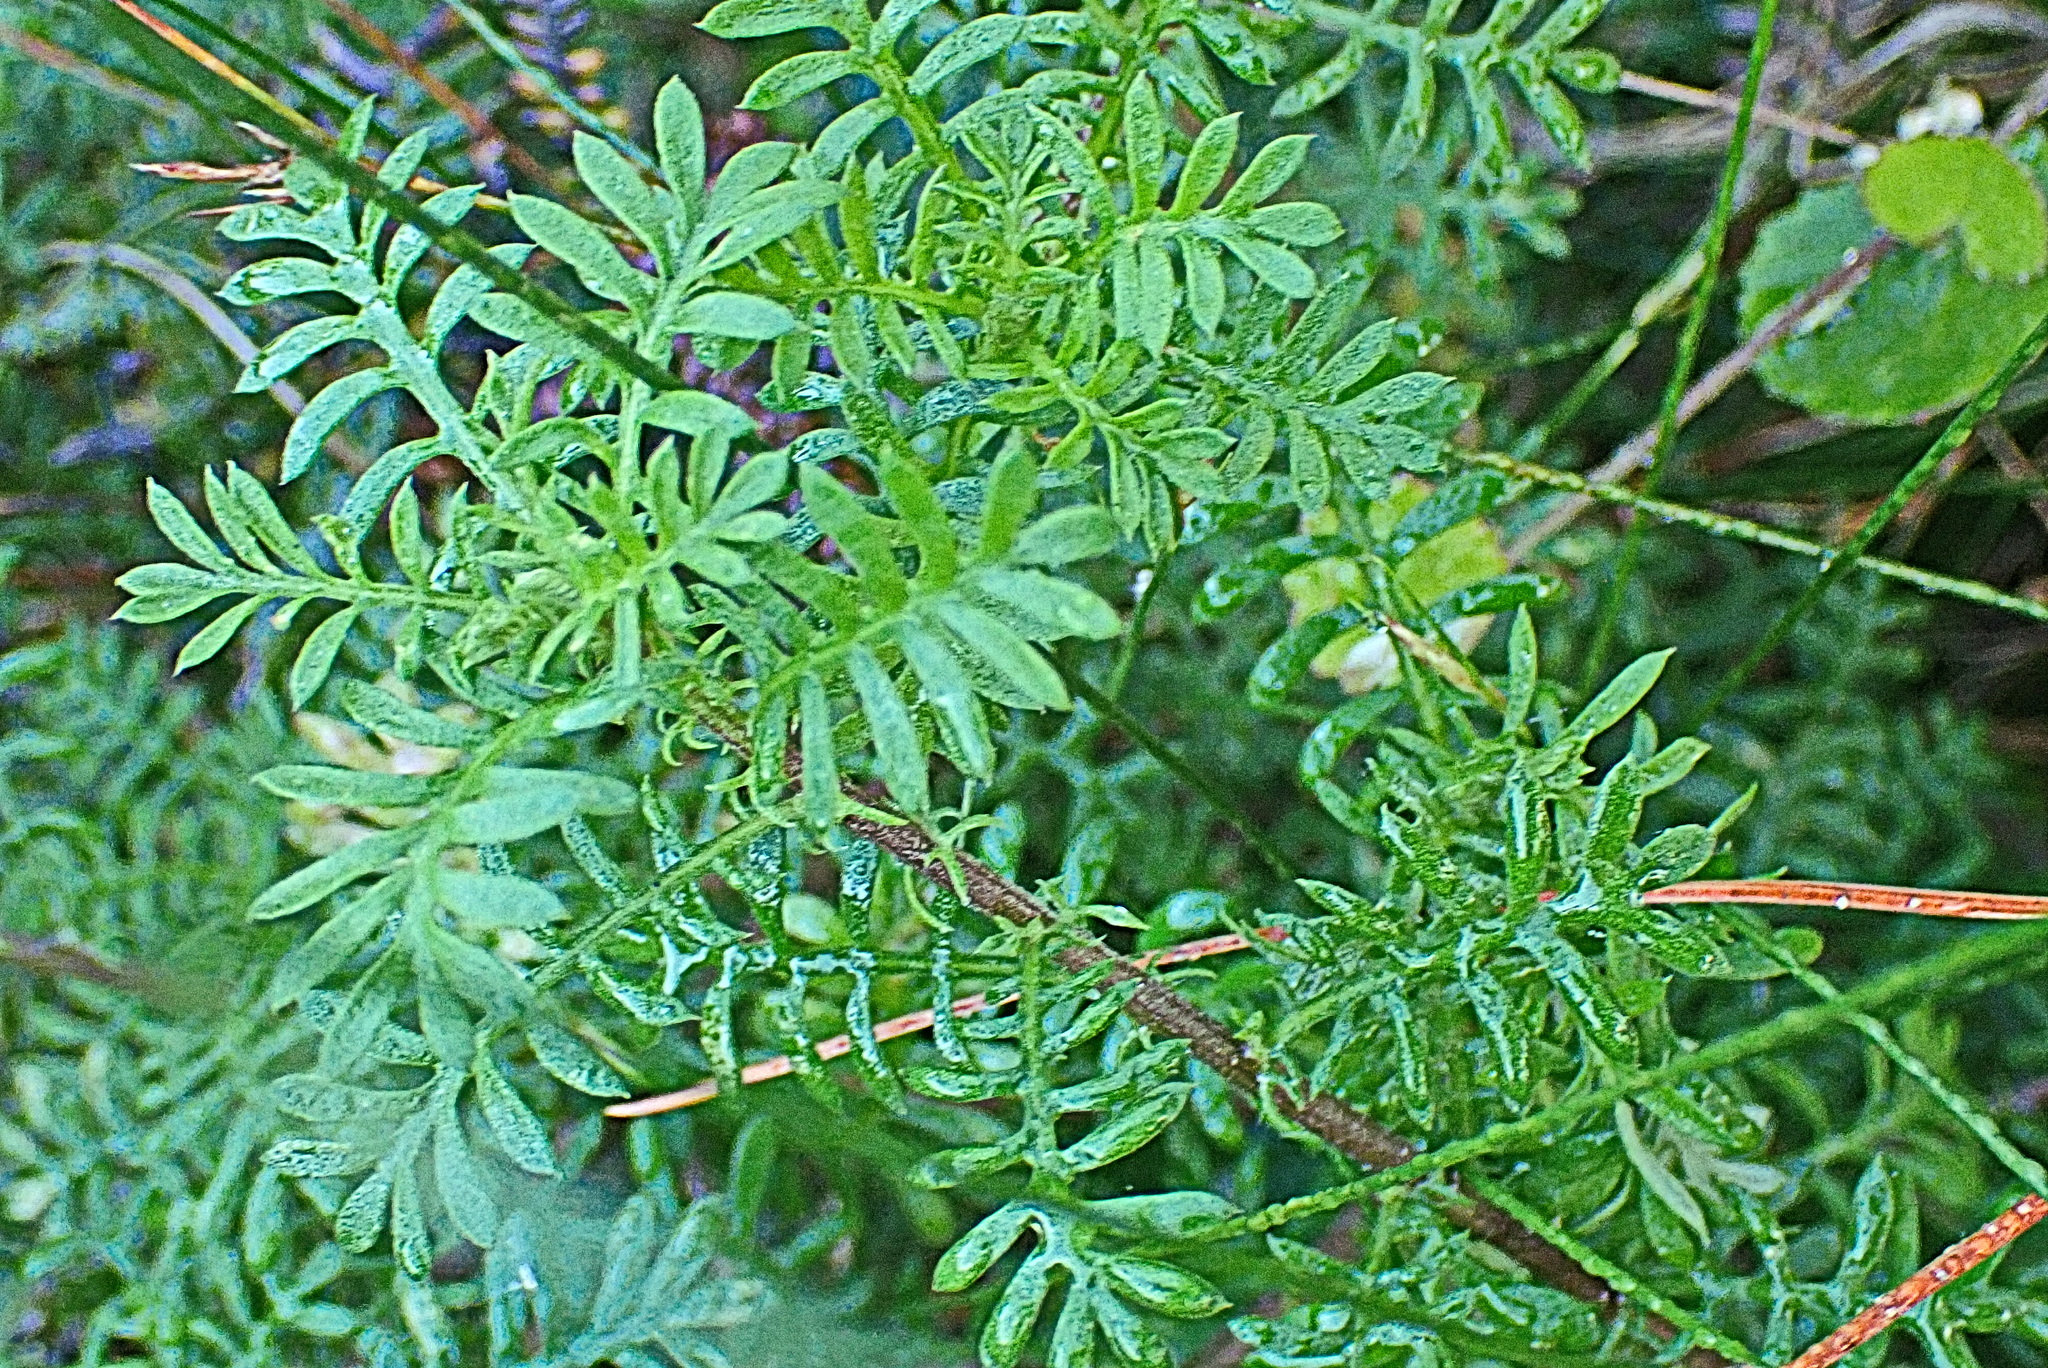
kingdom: Plantae
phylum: Tracheophyta
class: Magnoliopsida
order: Asterales
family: Asteraceae
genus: Hippia
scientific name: Hippia frutescens
